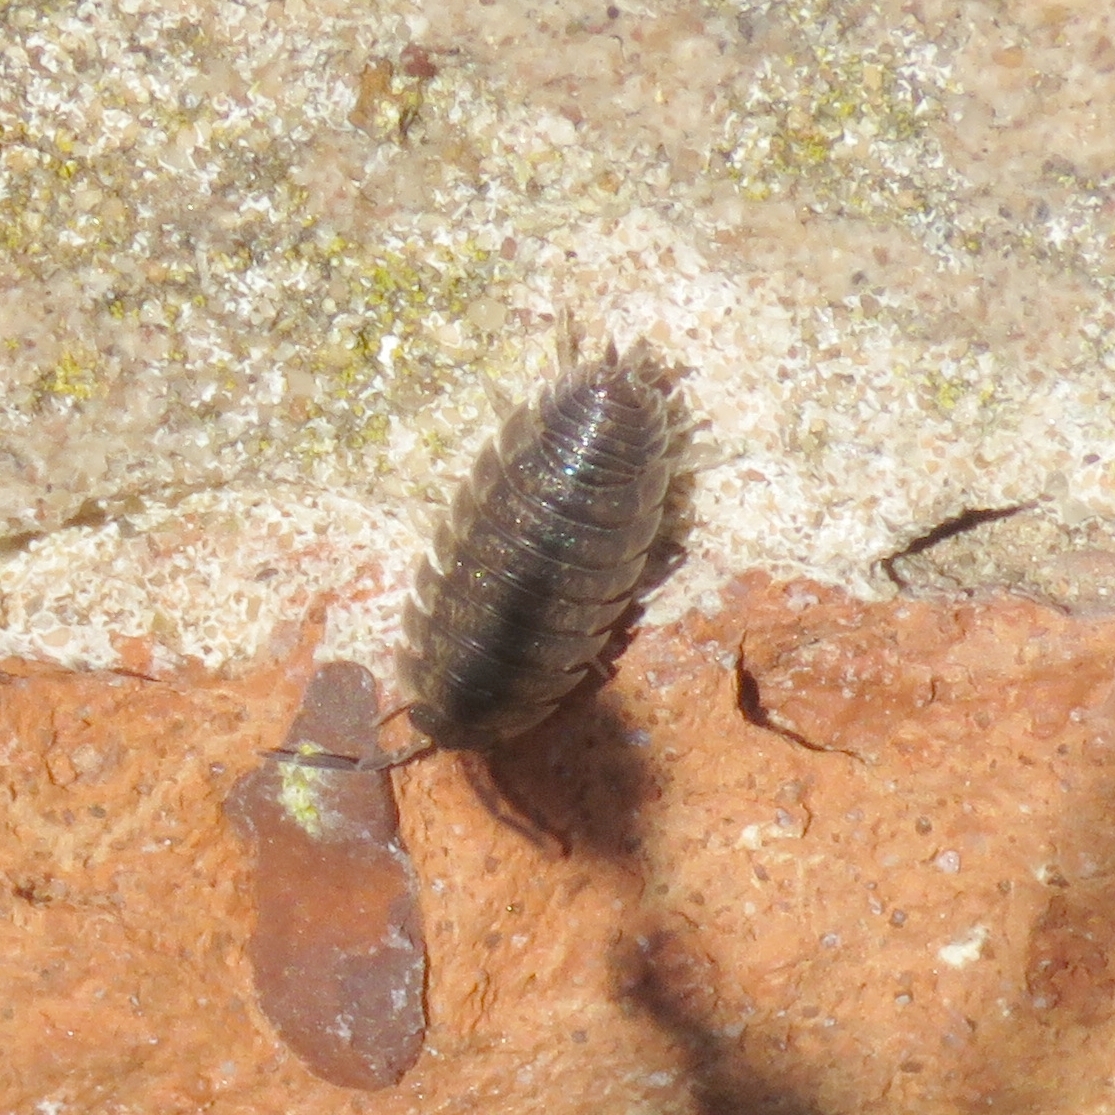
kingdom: Animalia
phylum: Arthropoda
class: Malacostraca
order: Isopoda
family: Porcellionidae
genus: Porcellio
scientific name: Porcellio scaber
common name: Common rough woodlouse
